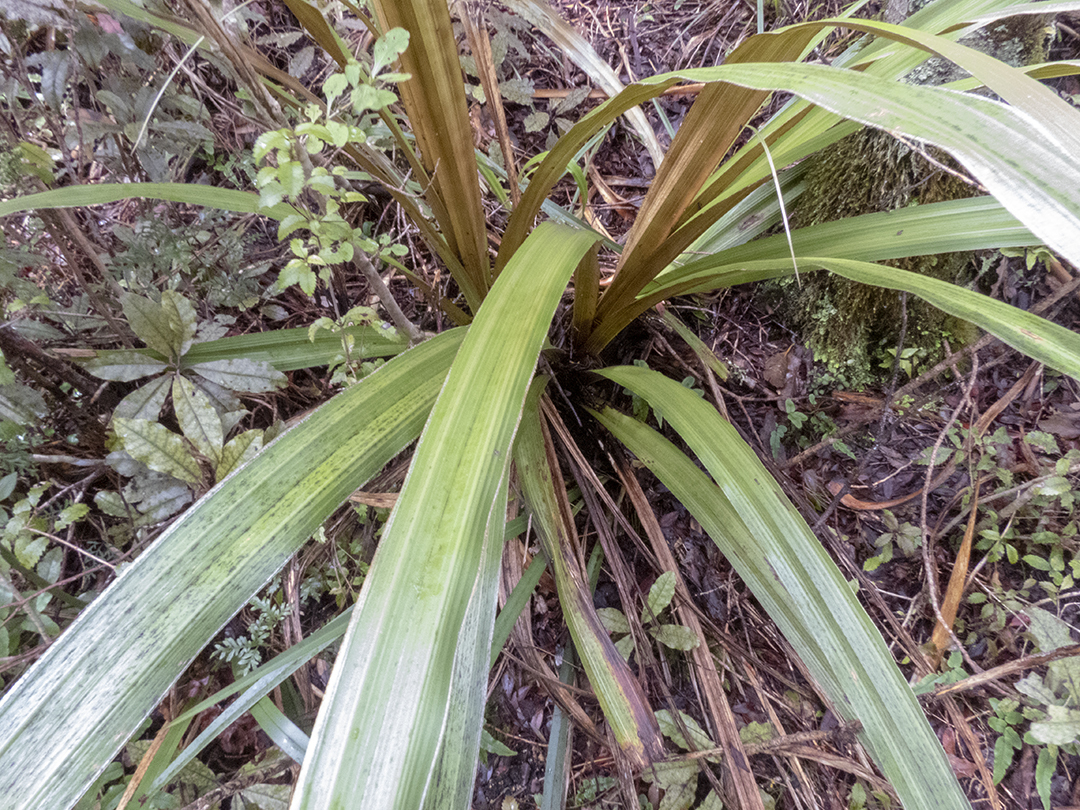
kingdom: Plantae
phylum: Tracheophyta
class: Liliopsida
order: Asparagales
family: Asteliaceae
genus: Astelia
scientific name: Astelia fragrans
